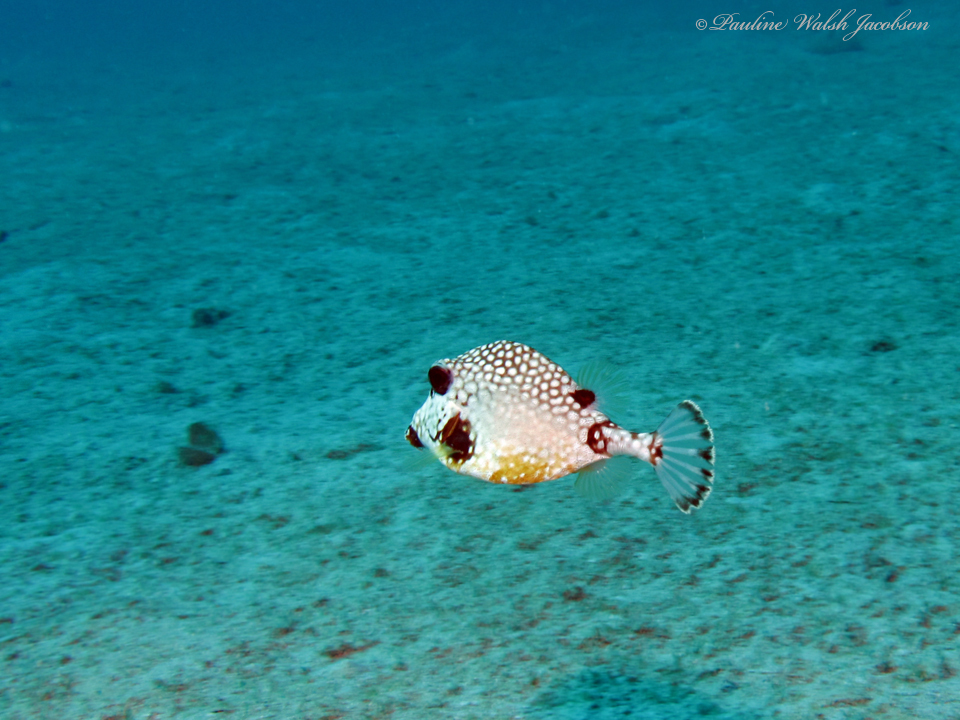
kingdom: Animalia
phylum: Chordata
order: Tetraodontiformes
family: Ostraciidae
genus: Lactophrys
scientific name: Lactophrys triqueter
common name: Smooth trunkfish
